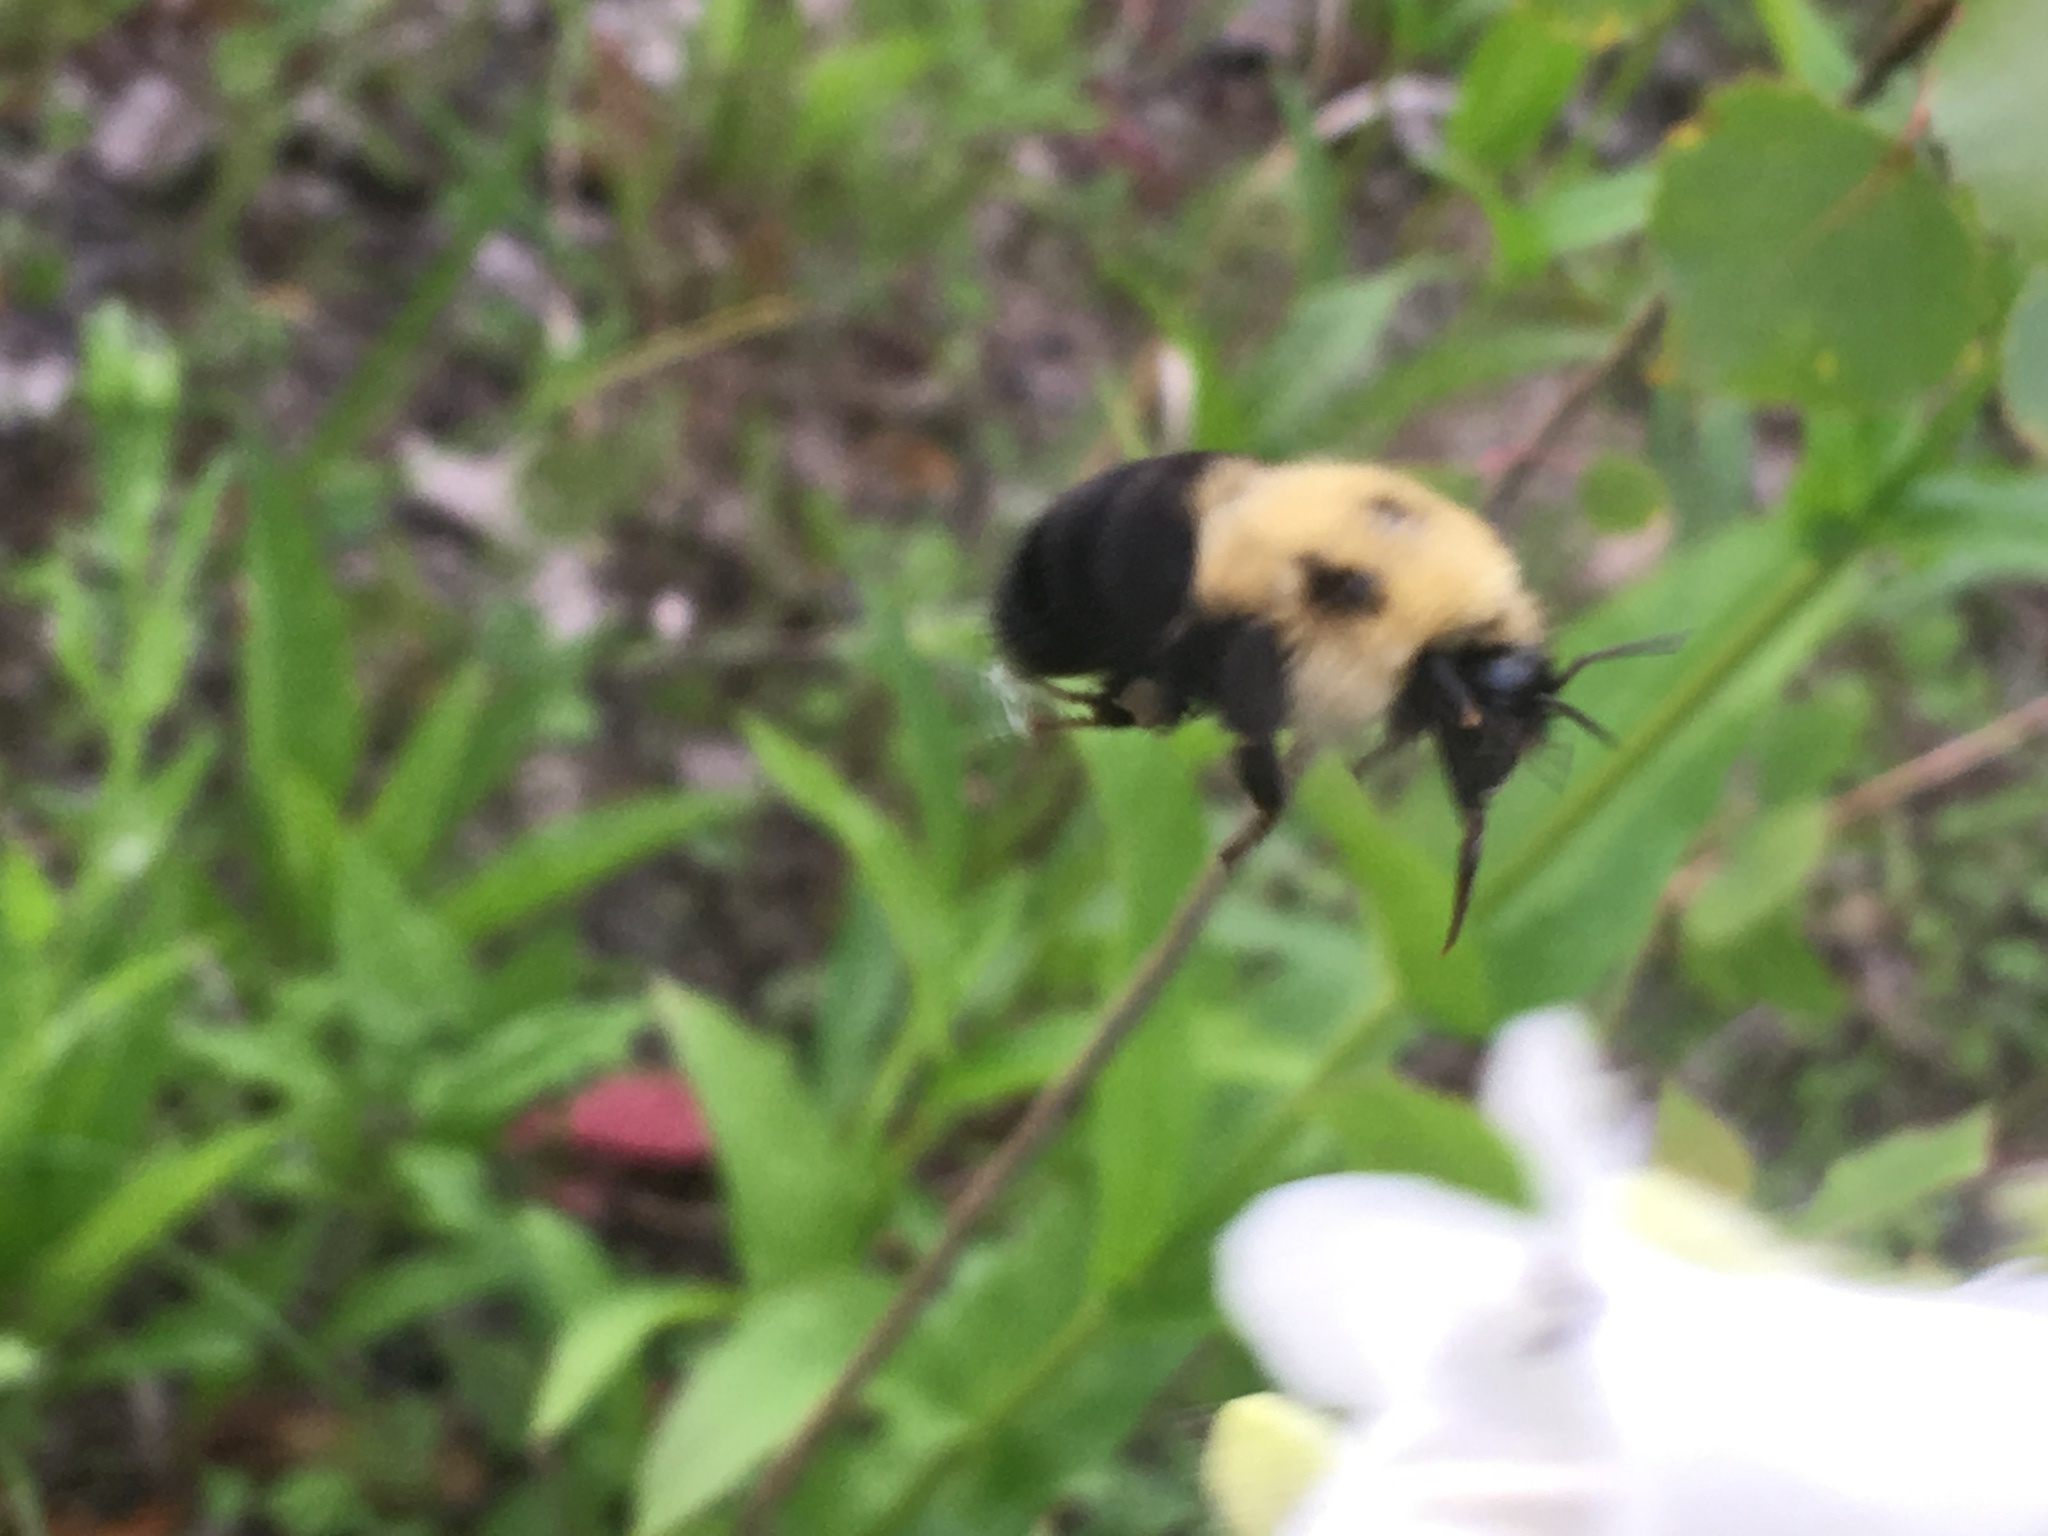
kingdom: Animalia
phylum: Arthropoda
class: Insecta
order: Hymenoptera
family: Apidae
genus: Bombus
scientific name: Bombus bimaculatus
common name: Two-spotted bumble bee
